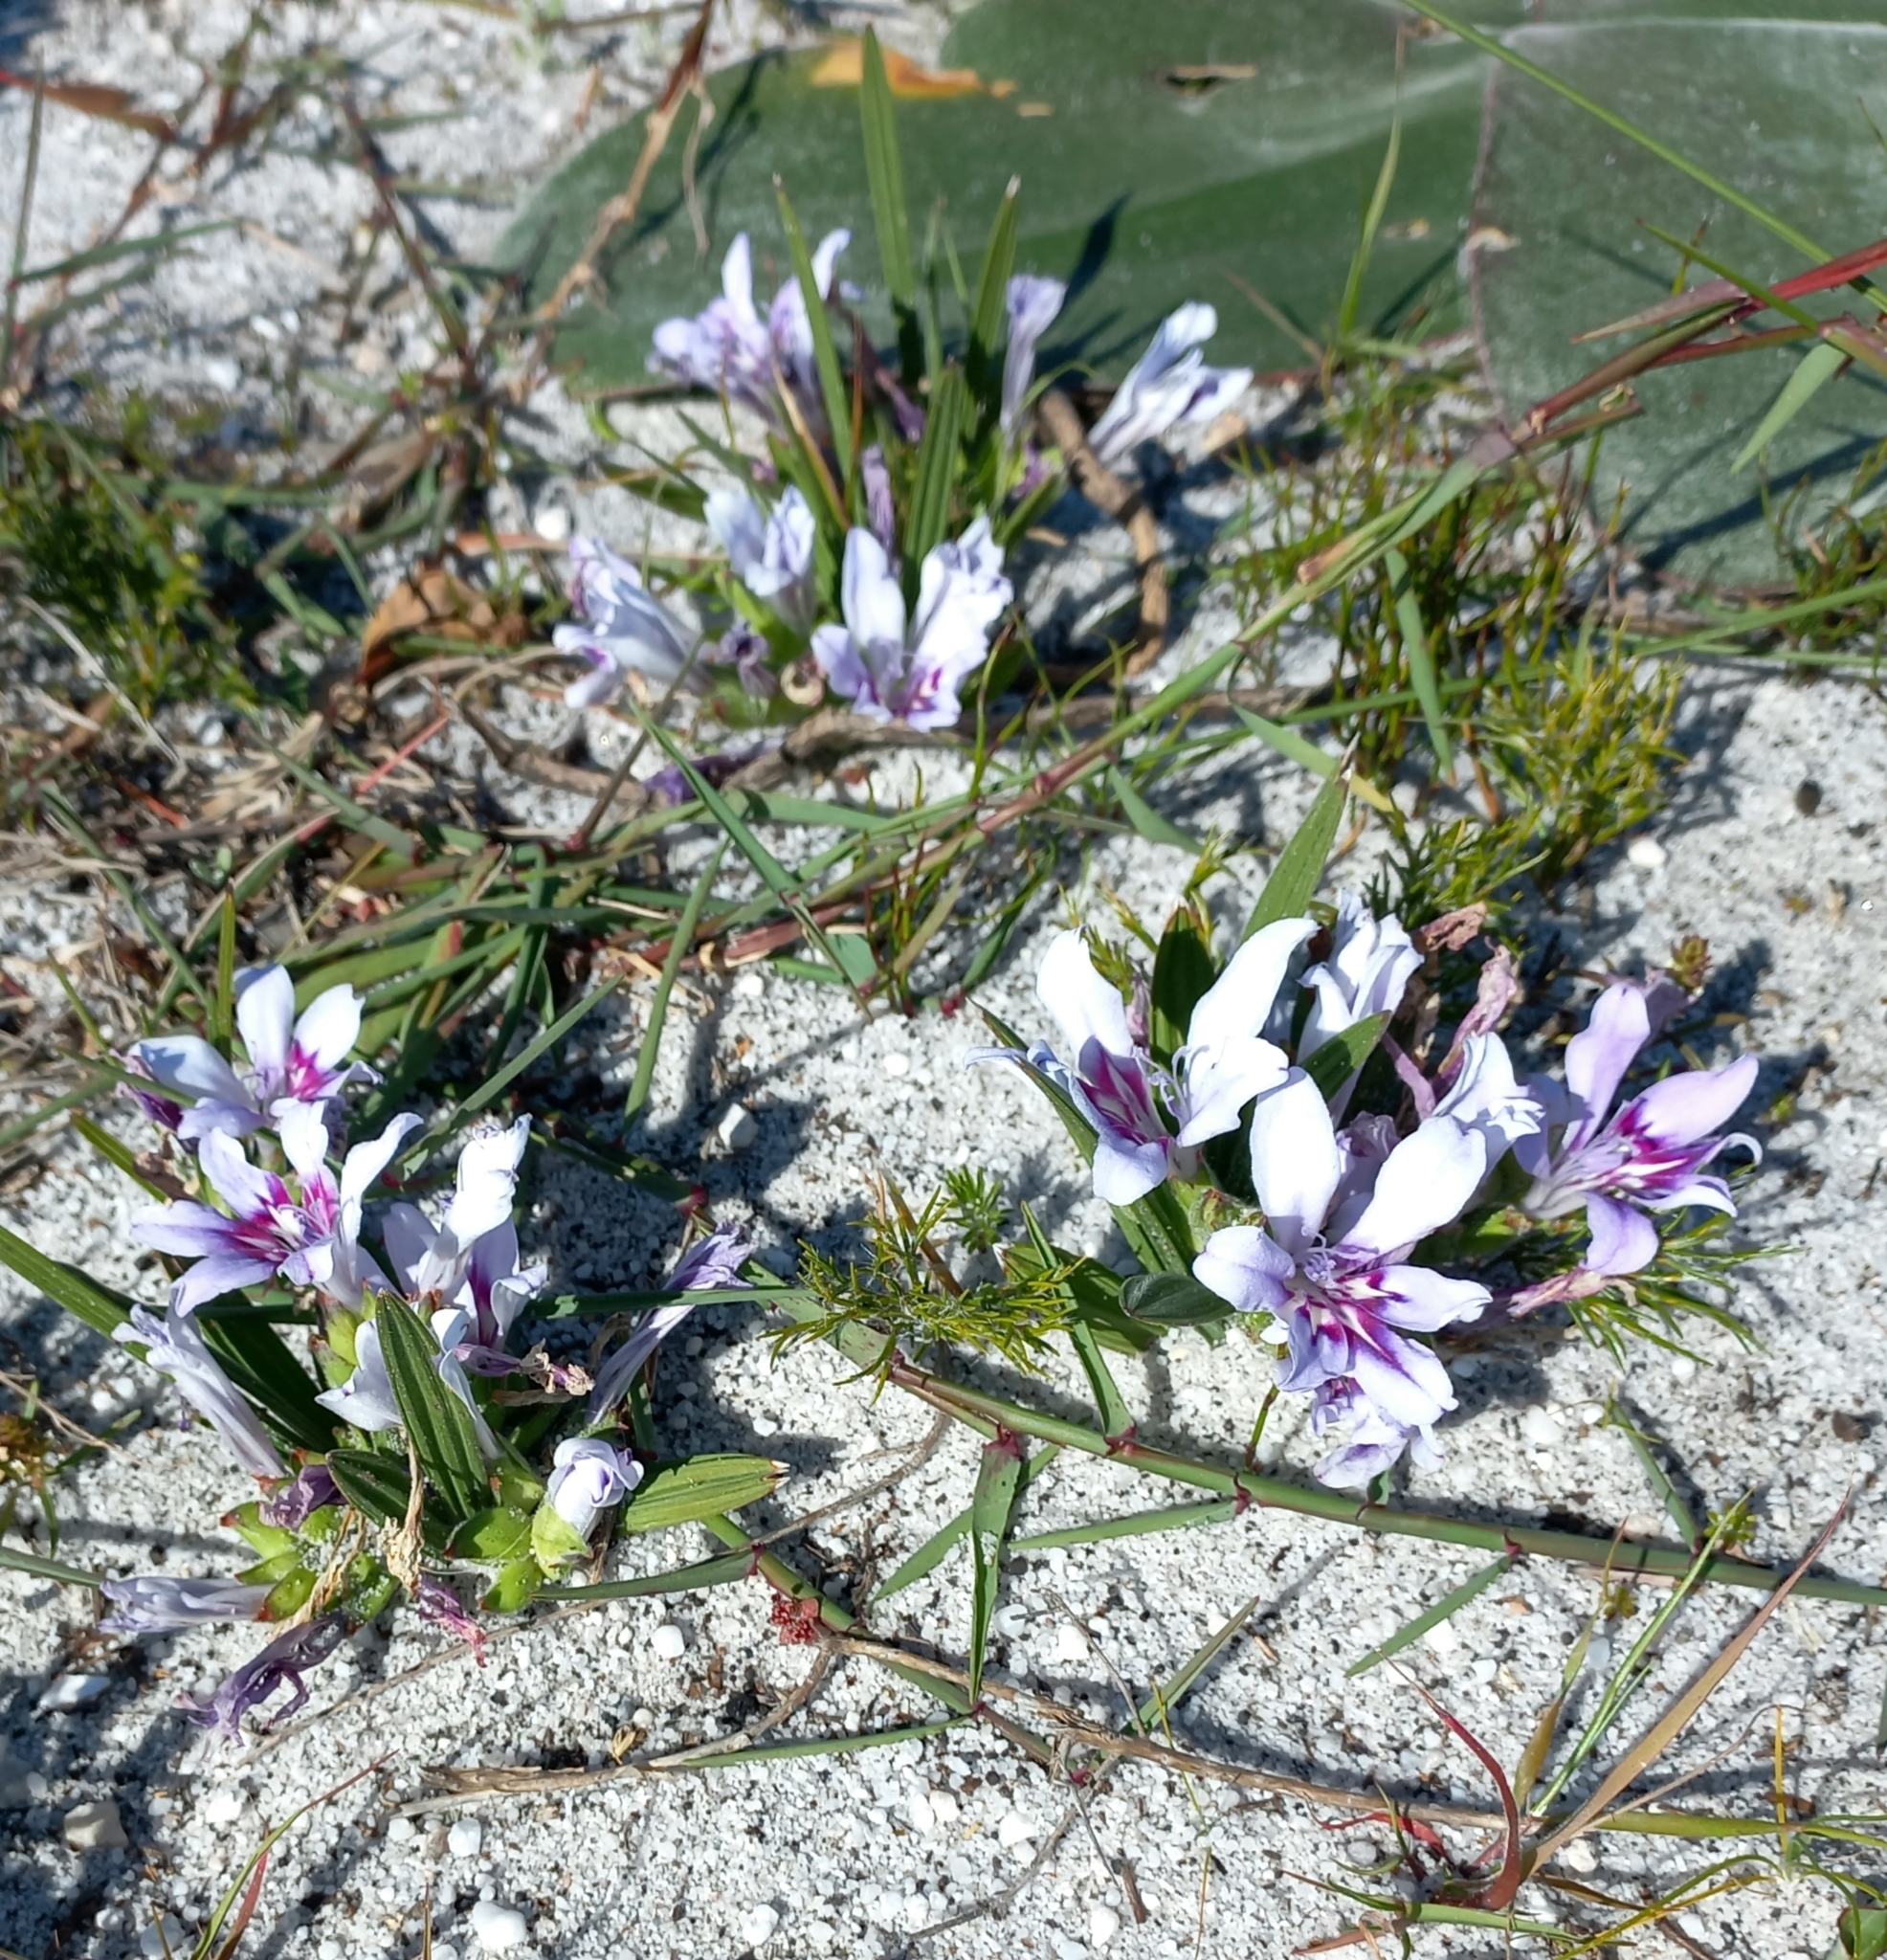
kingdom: Plantae
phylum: Tracheophyta
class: Liliopsida
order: Asparagales
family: Iridaceae
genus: Babiana
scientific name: Babiana ambigua
